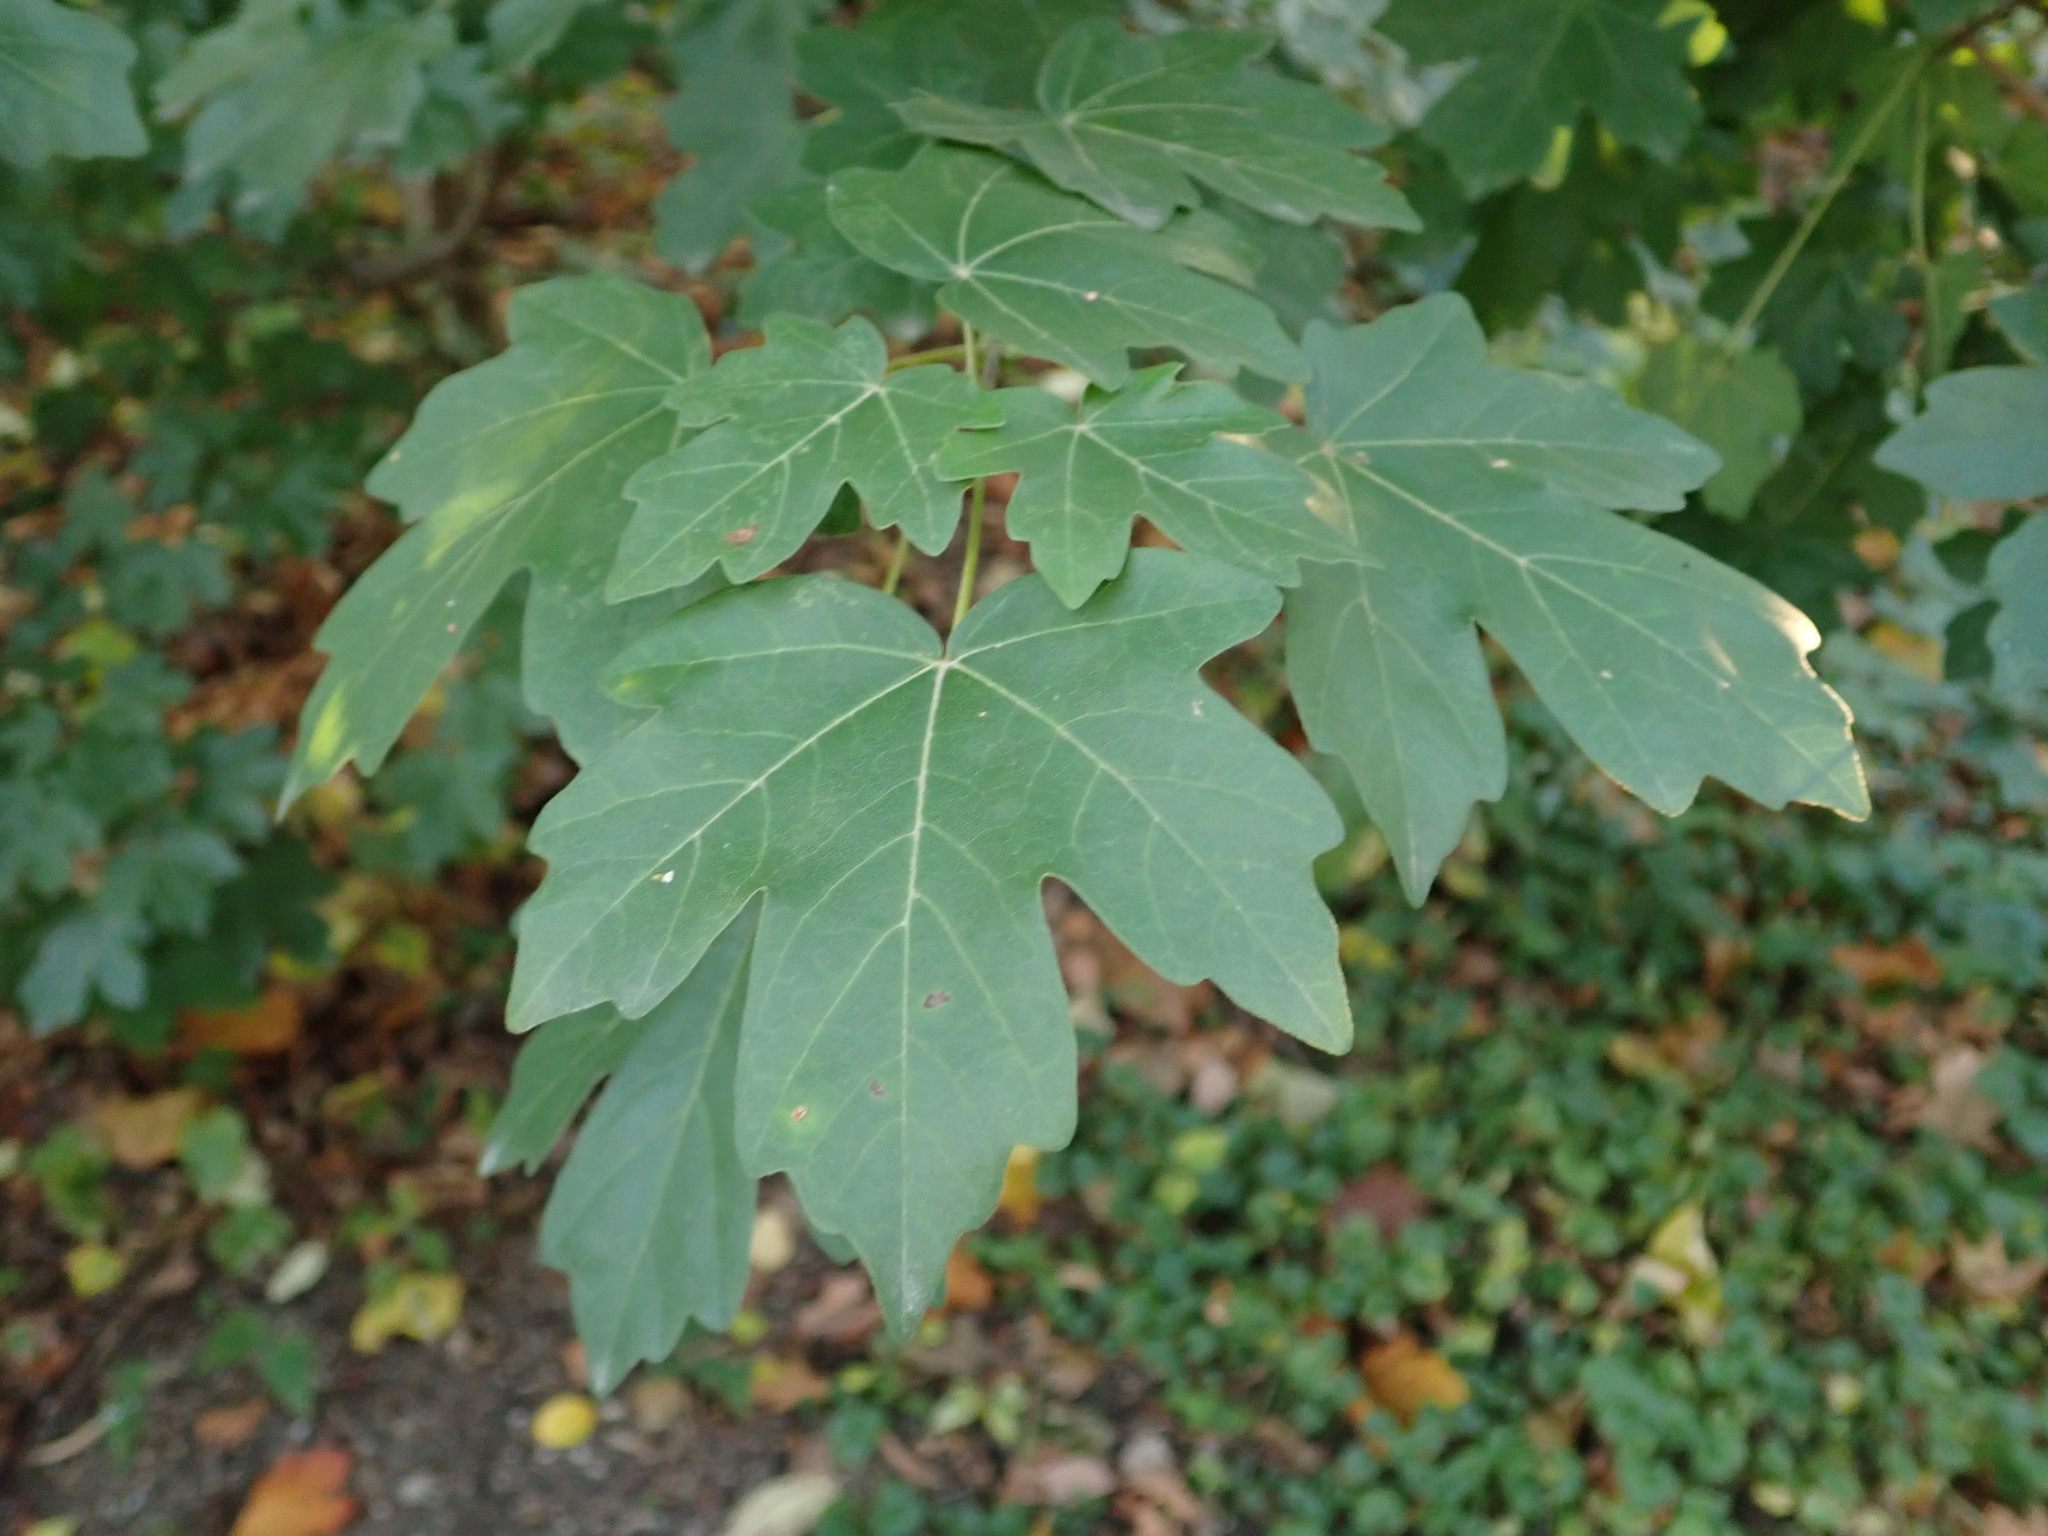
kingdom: Plantae
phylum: Tracheophyta
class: Magnoliopsida
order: Sapindales
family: Sapindaceae
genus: Acer
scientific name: Acer campestre
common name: Field maple
